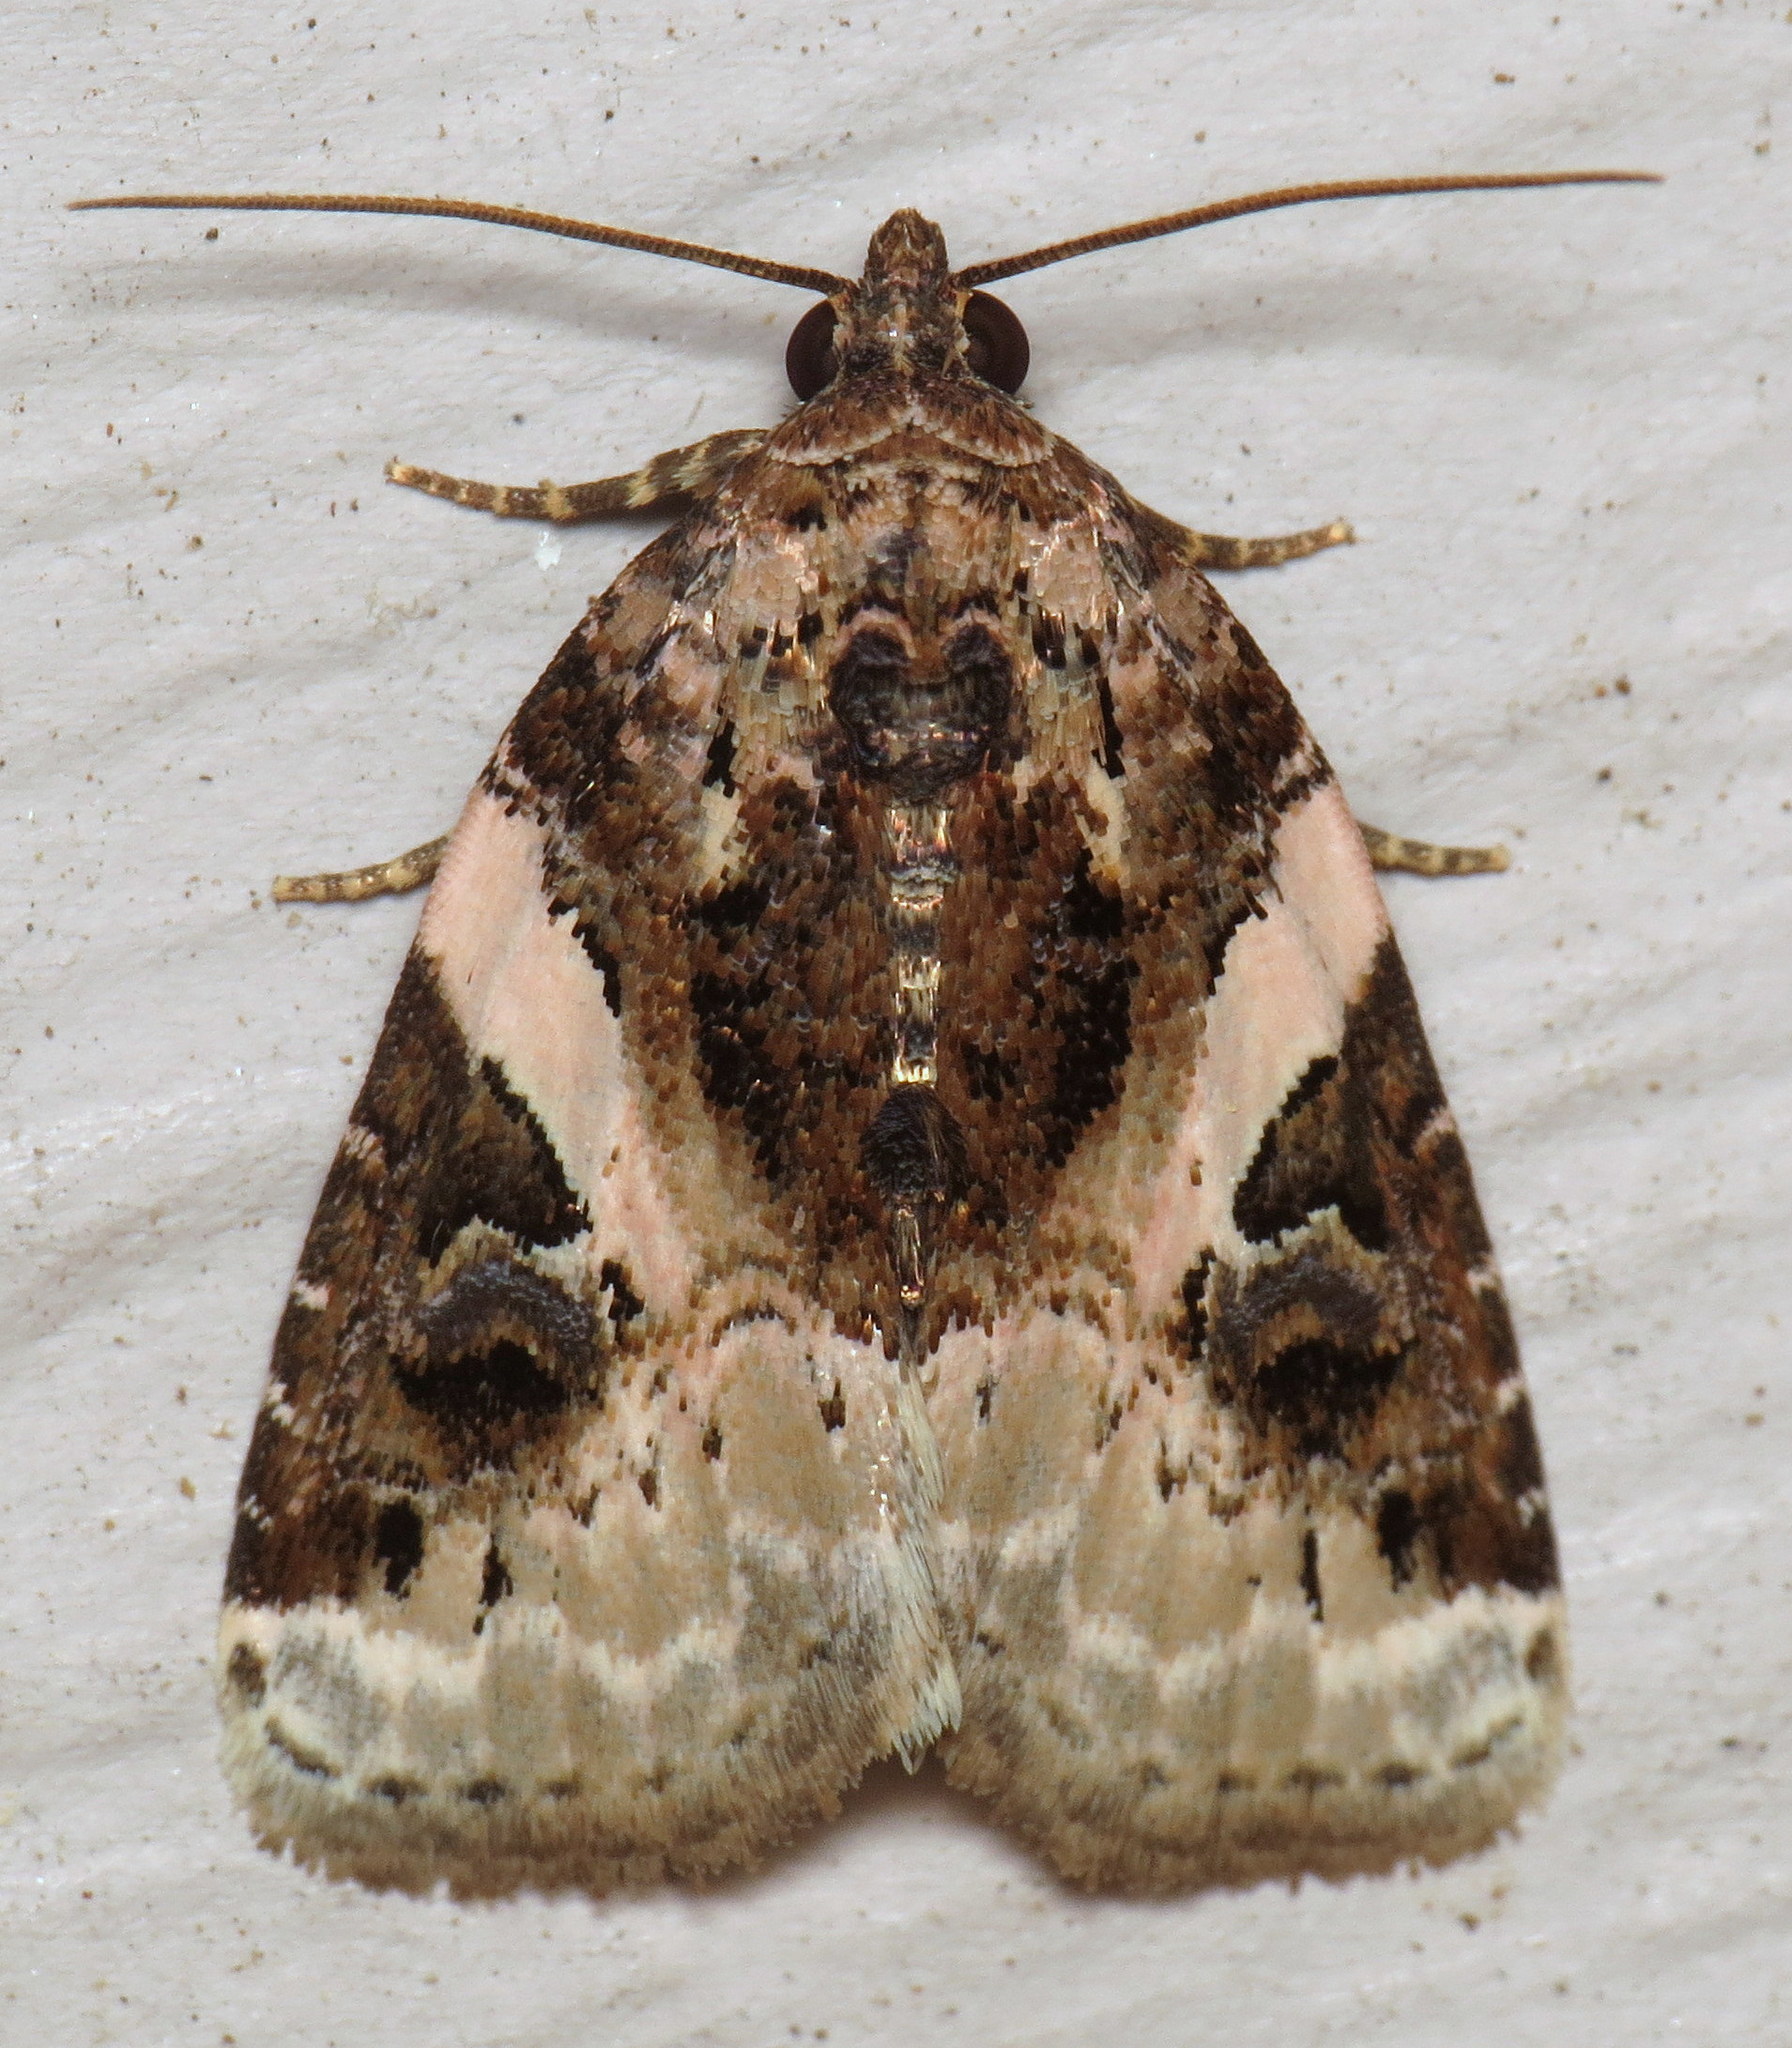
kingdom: Animalia
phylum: Arthropoda
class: Insecta
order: Lepidoptera
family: Noctuidae
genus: Pseudeustrotia
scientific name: Pseudeustrotia carneola
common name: Pink-barred lithacodia moth
